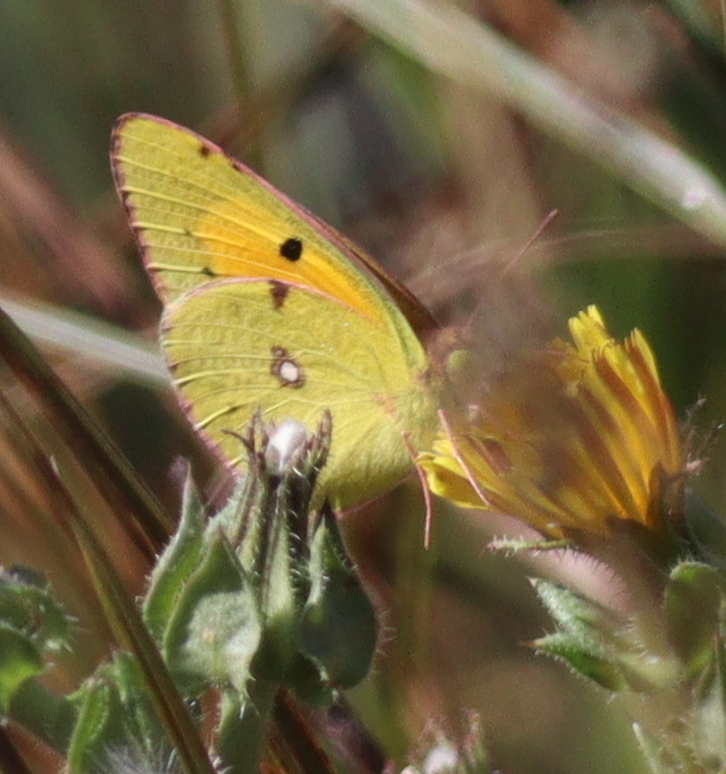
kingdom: Animalia
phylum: Arthropoda
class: Insecta
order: Lepidoptera
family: Pieridae
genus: Colias
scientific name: Colias croceus
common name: Clouded yellow
